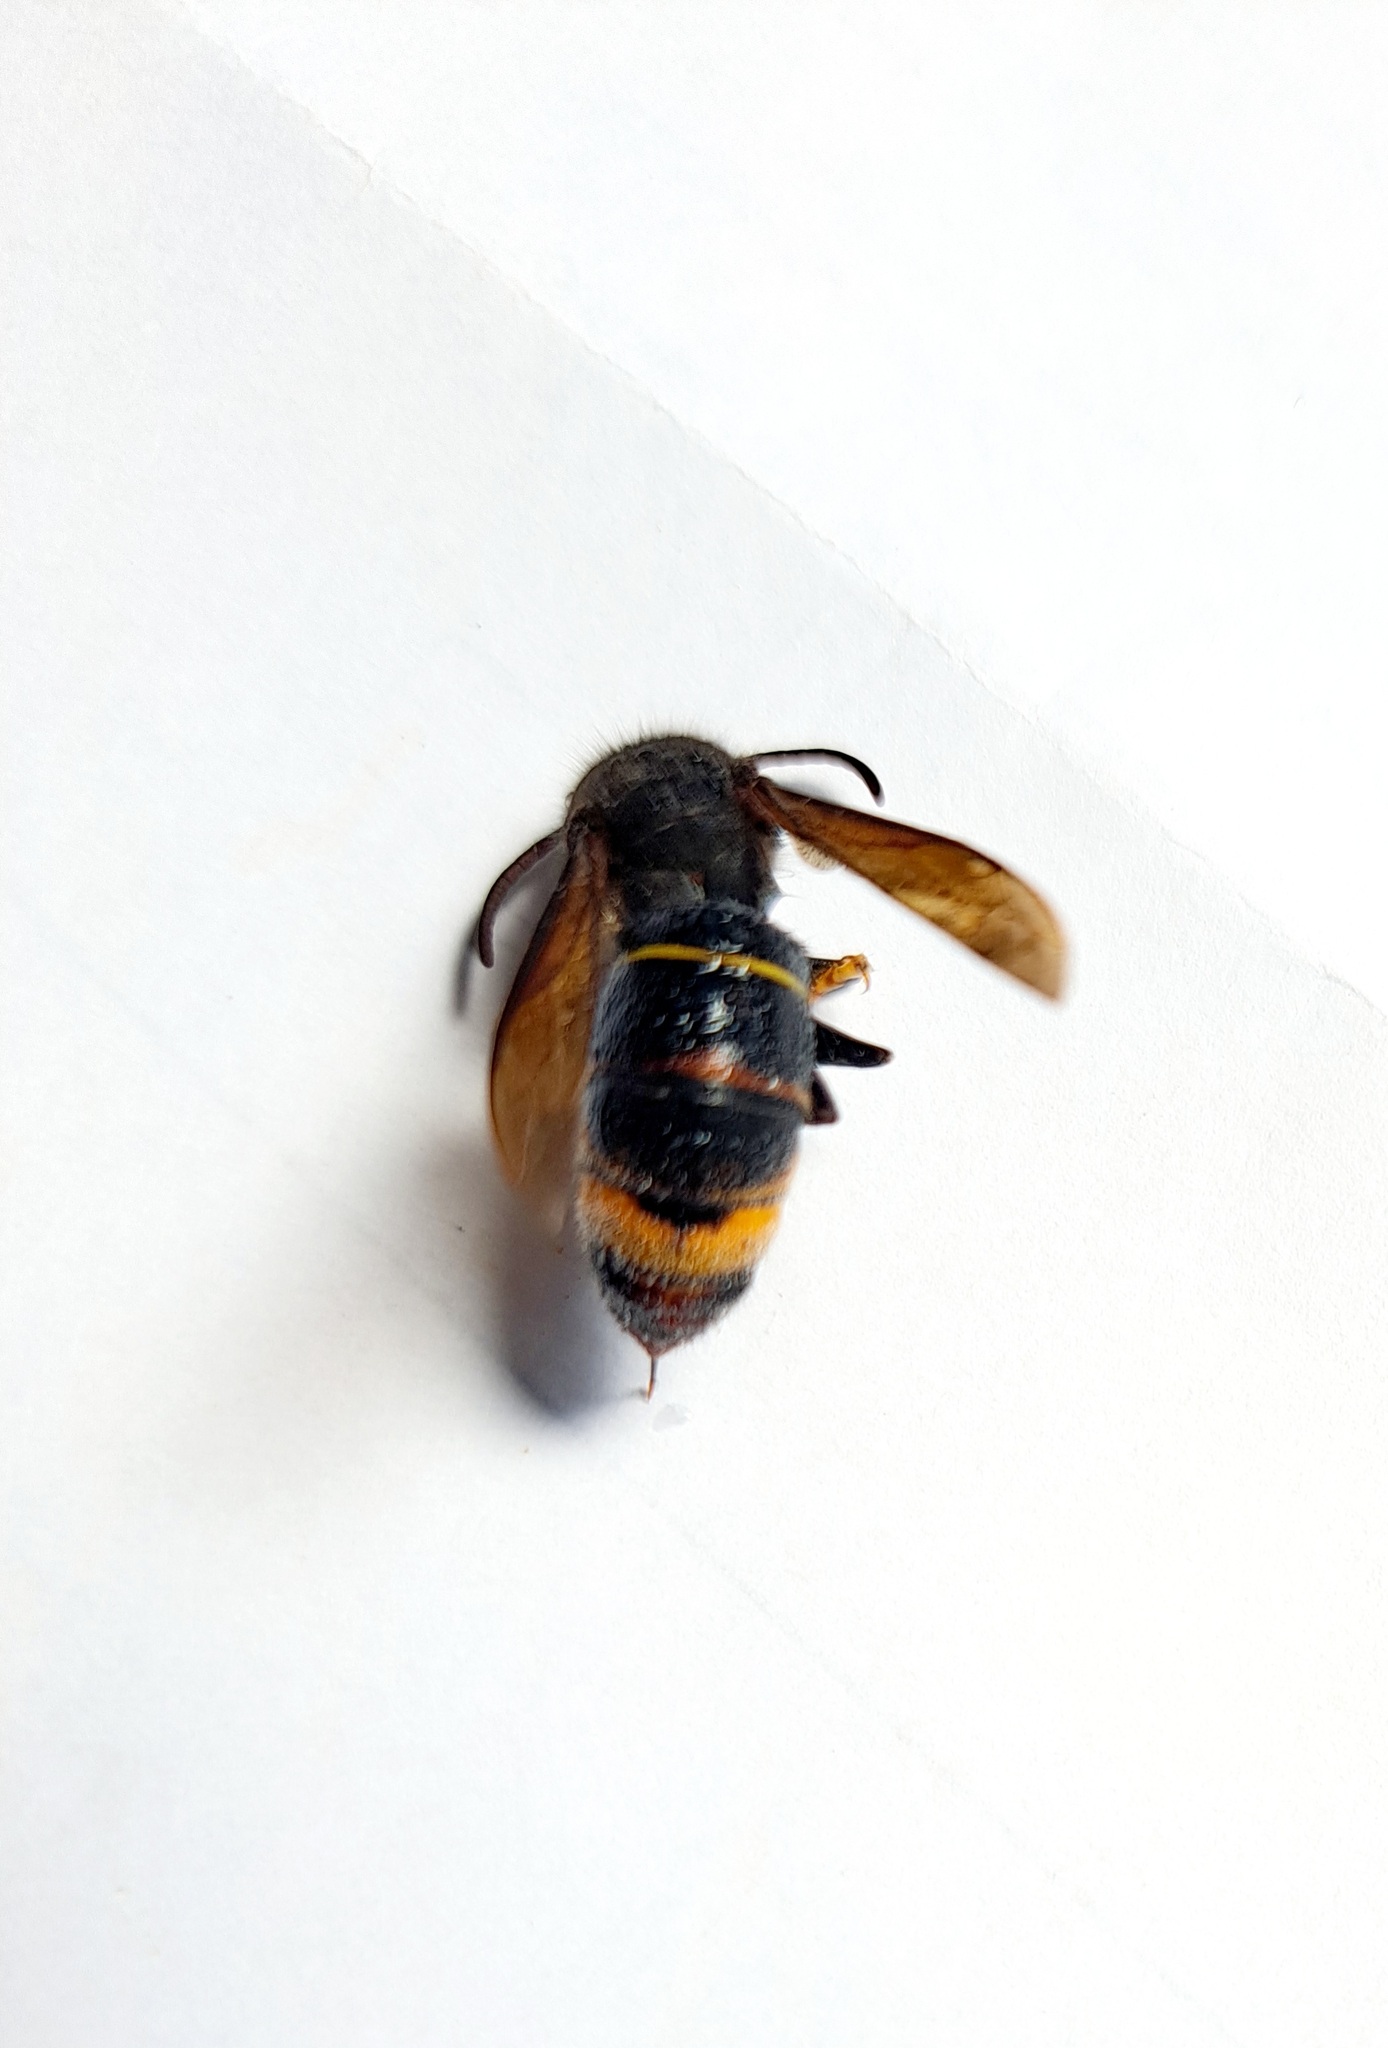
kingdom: Animalia
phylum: Arthropoda
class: Insecta
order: Hymenoptera
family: Vespidae
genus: Vespa
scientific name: Vespa velutina
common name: Asian hornet
